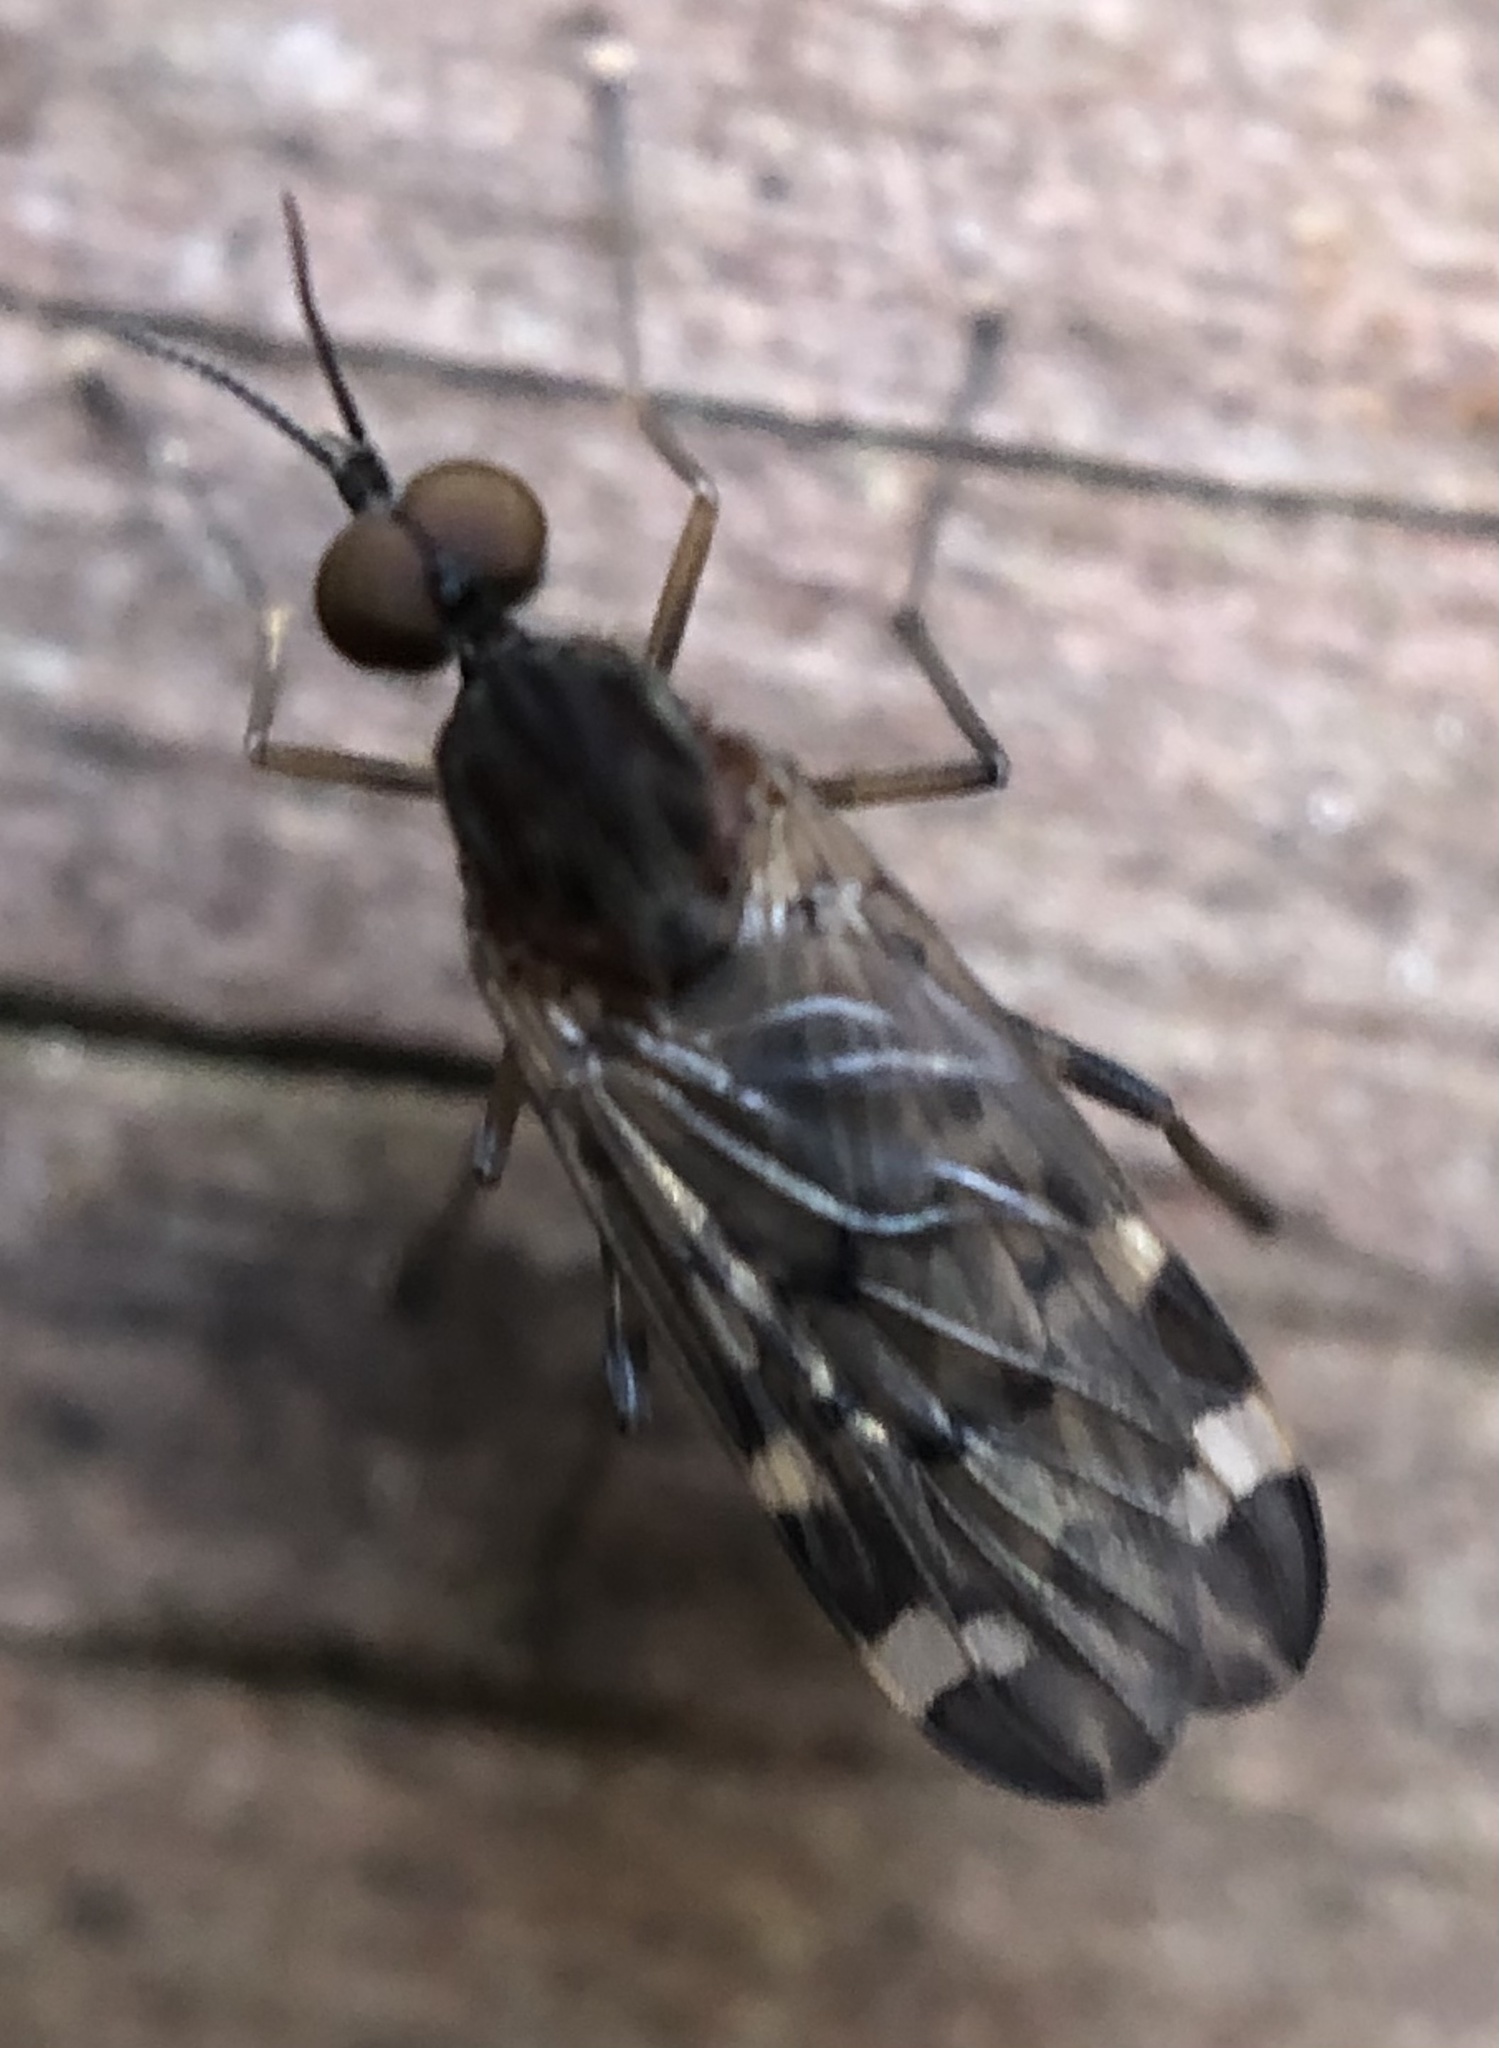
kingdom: Animalia
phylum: Arthropoda
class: Insecta
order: Diptera
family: Anisopodidae
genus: Sylvicola
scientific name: Sylvicola alternata
